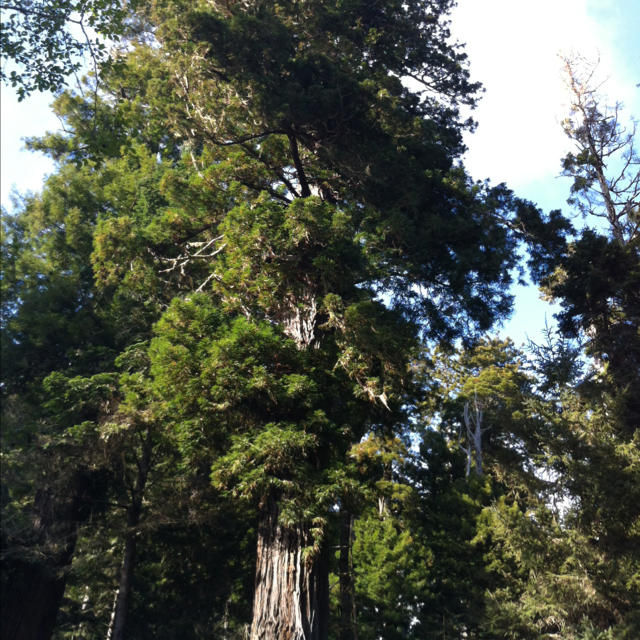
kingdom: Plantae
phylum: Tracheophyta
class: Pinopsida
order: Pinales
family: Cupressaceae
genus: Sequoia
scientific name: Sequoia sempervirens
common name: Coast redwood
